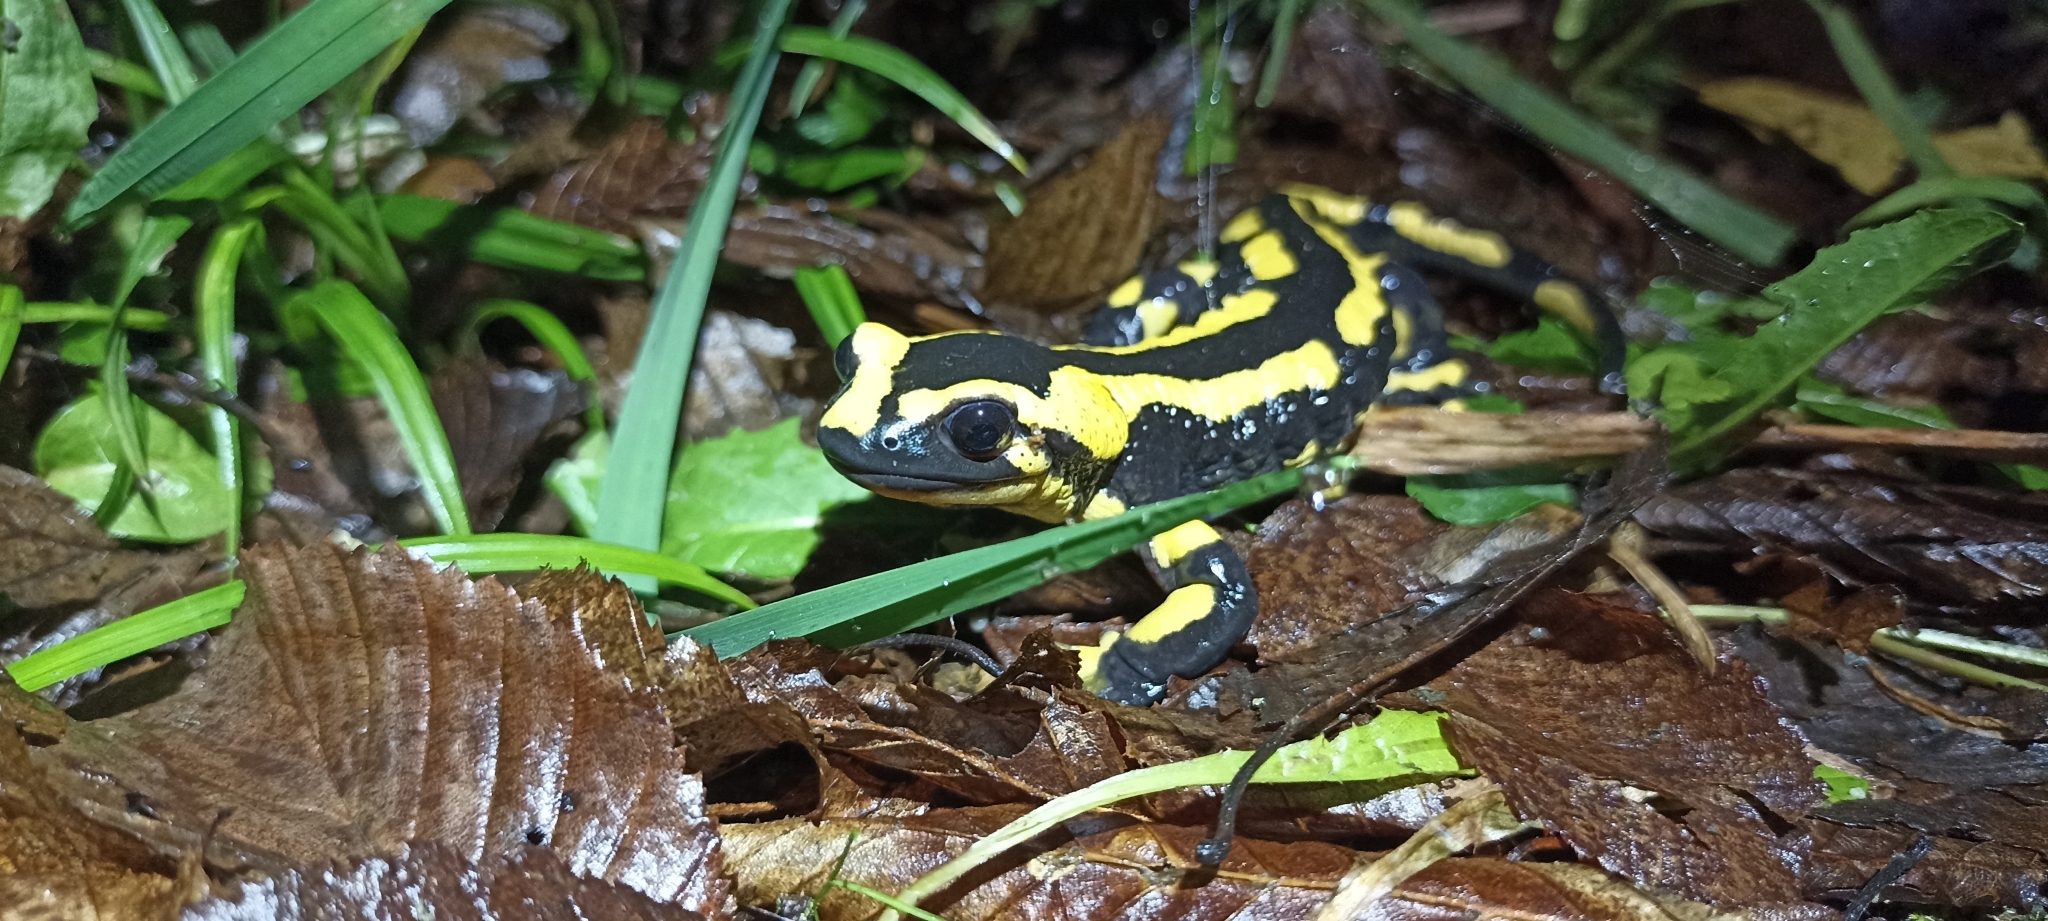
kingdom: Animalia
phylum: Chordata
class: Amphibia
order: Caudata
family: Salamandridae
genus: Salamandra
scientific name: Salamandra salamandra
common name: Fire salamander
